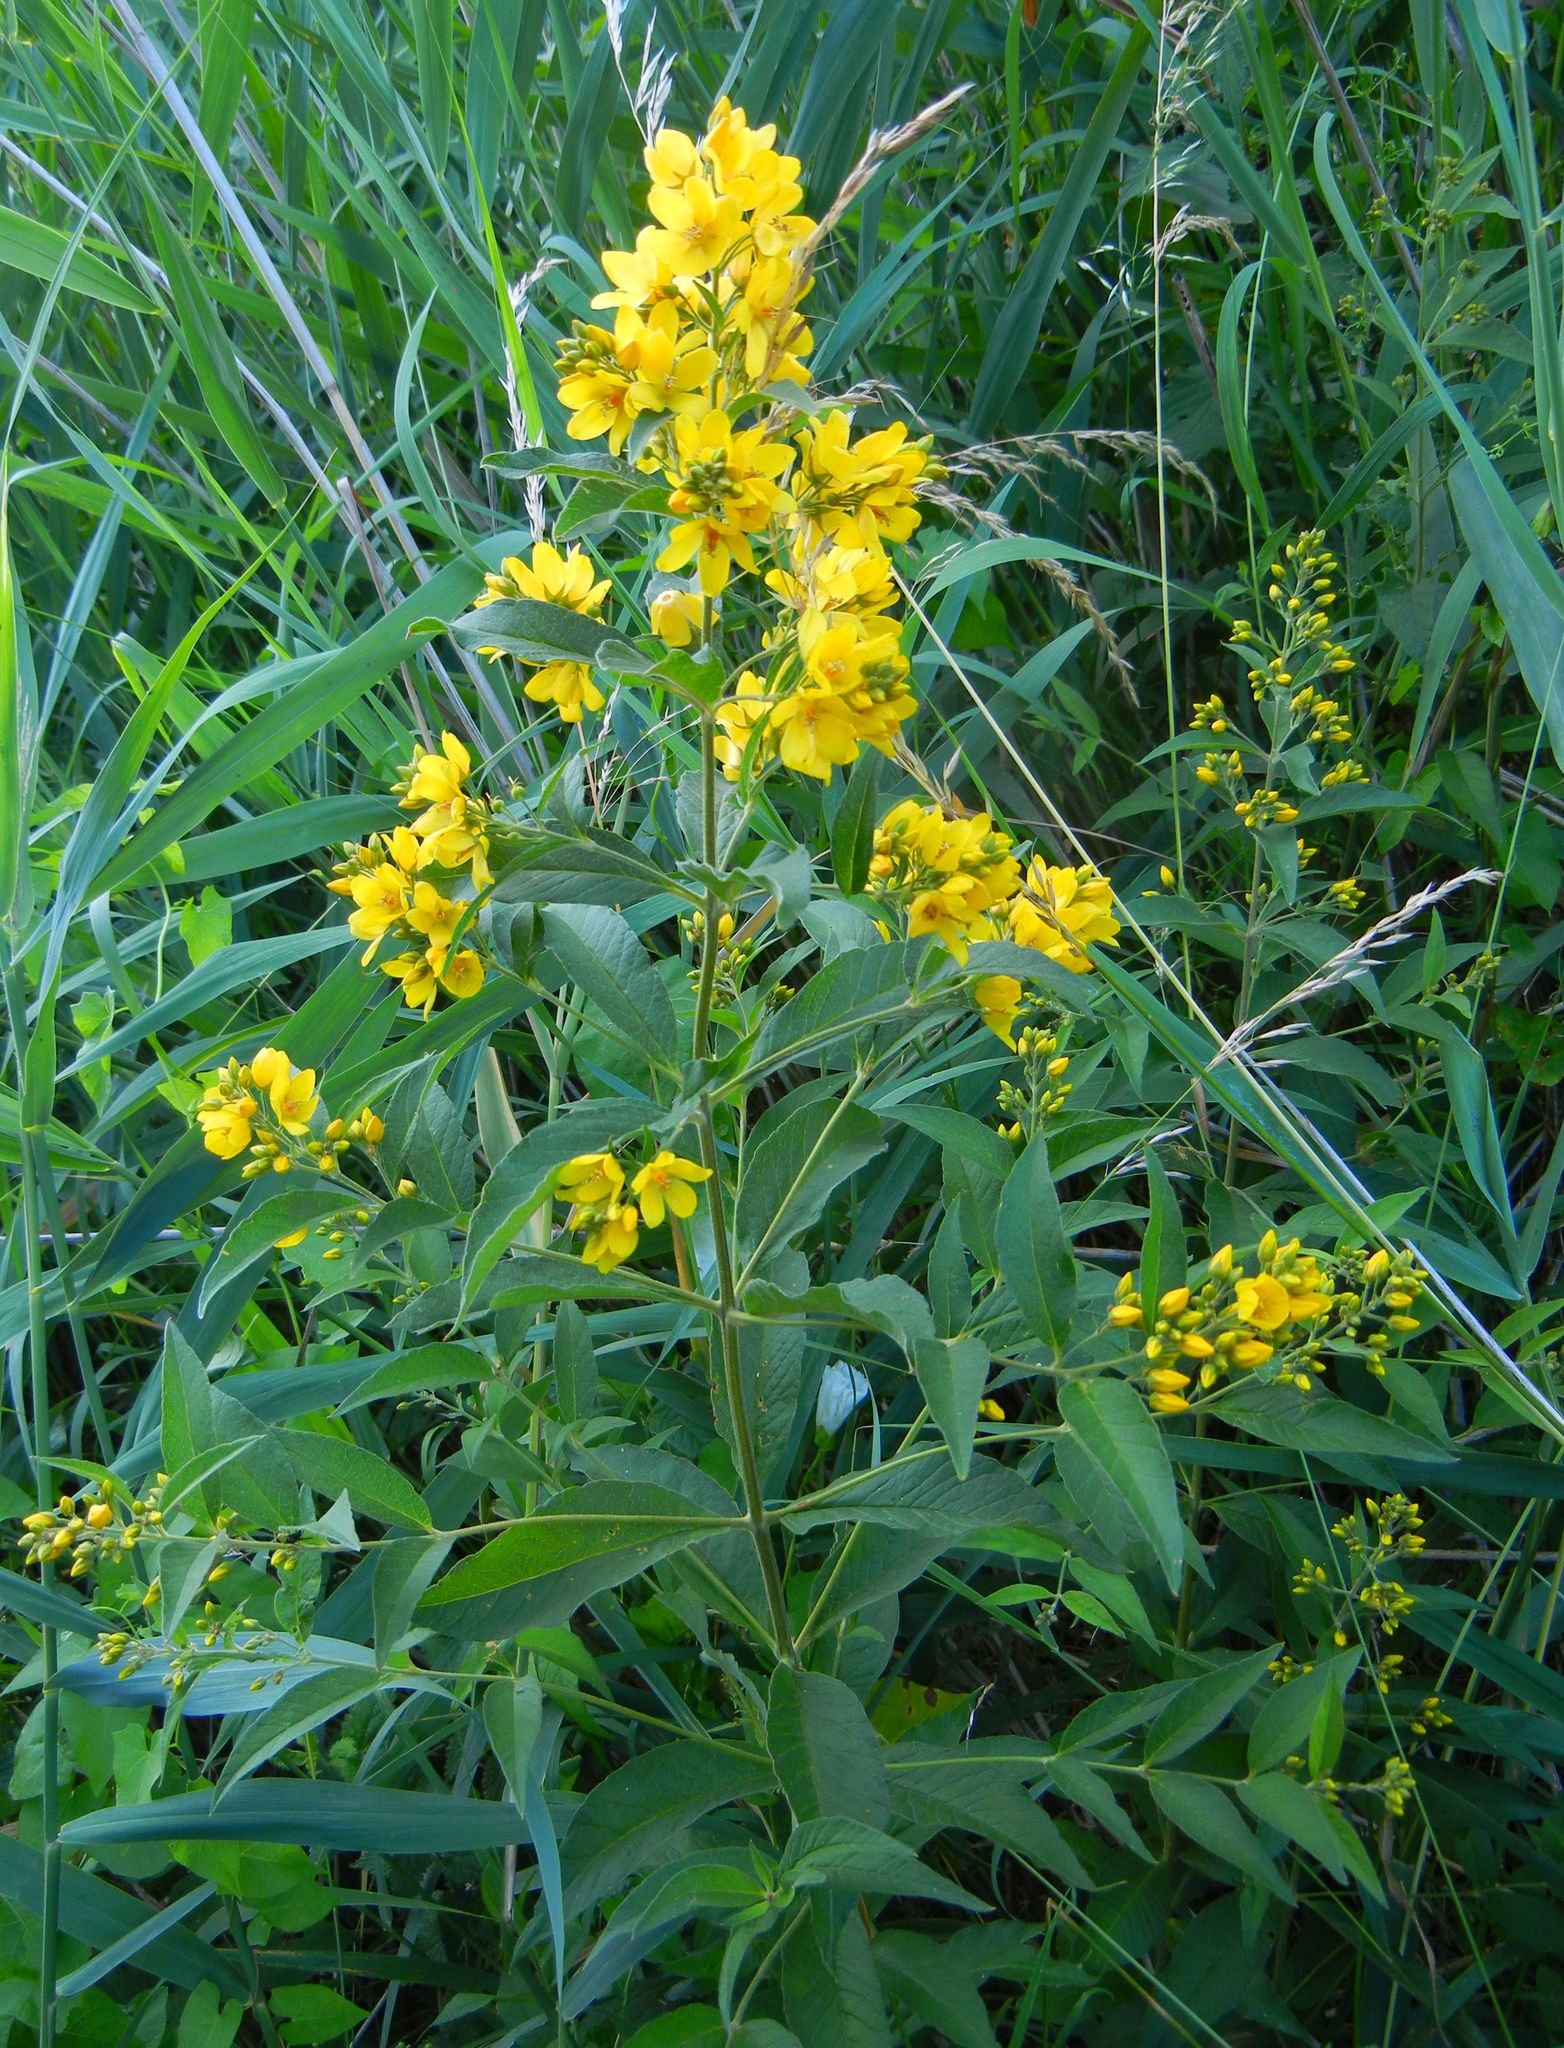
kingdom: Plantae
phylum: Tracheophyta
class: Magnoliopsida
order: Ericales
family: Primulaceae
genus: Lysimachia
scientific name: Lysimachia vulgaris
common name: Yellow loosestrife
